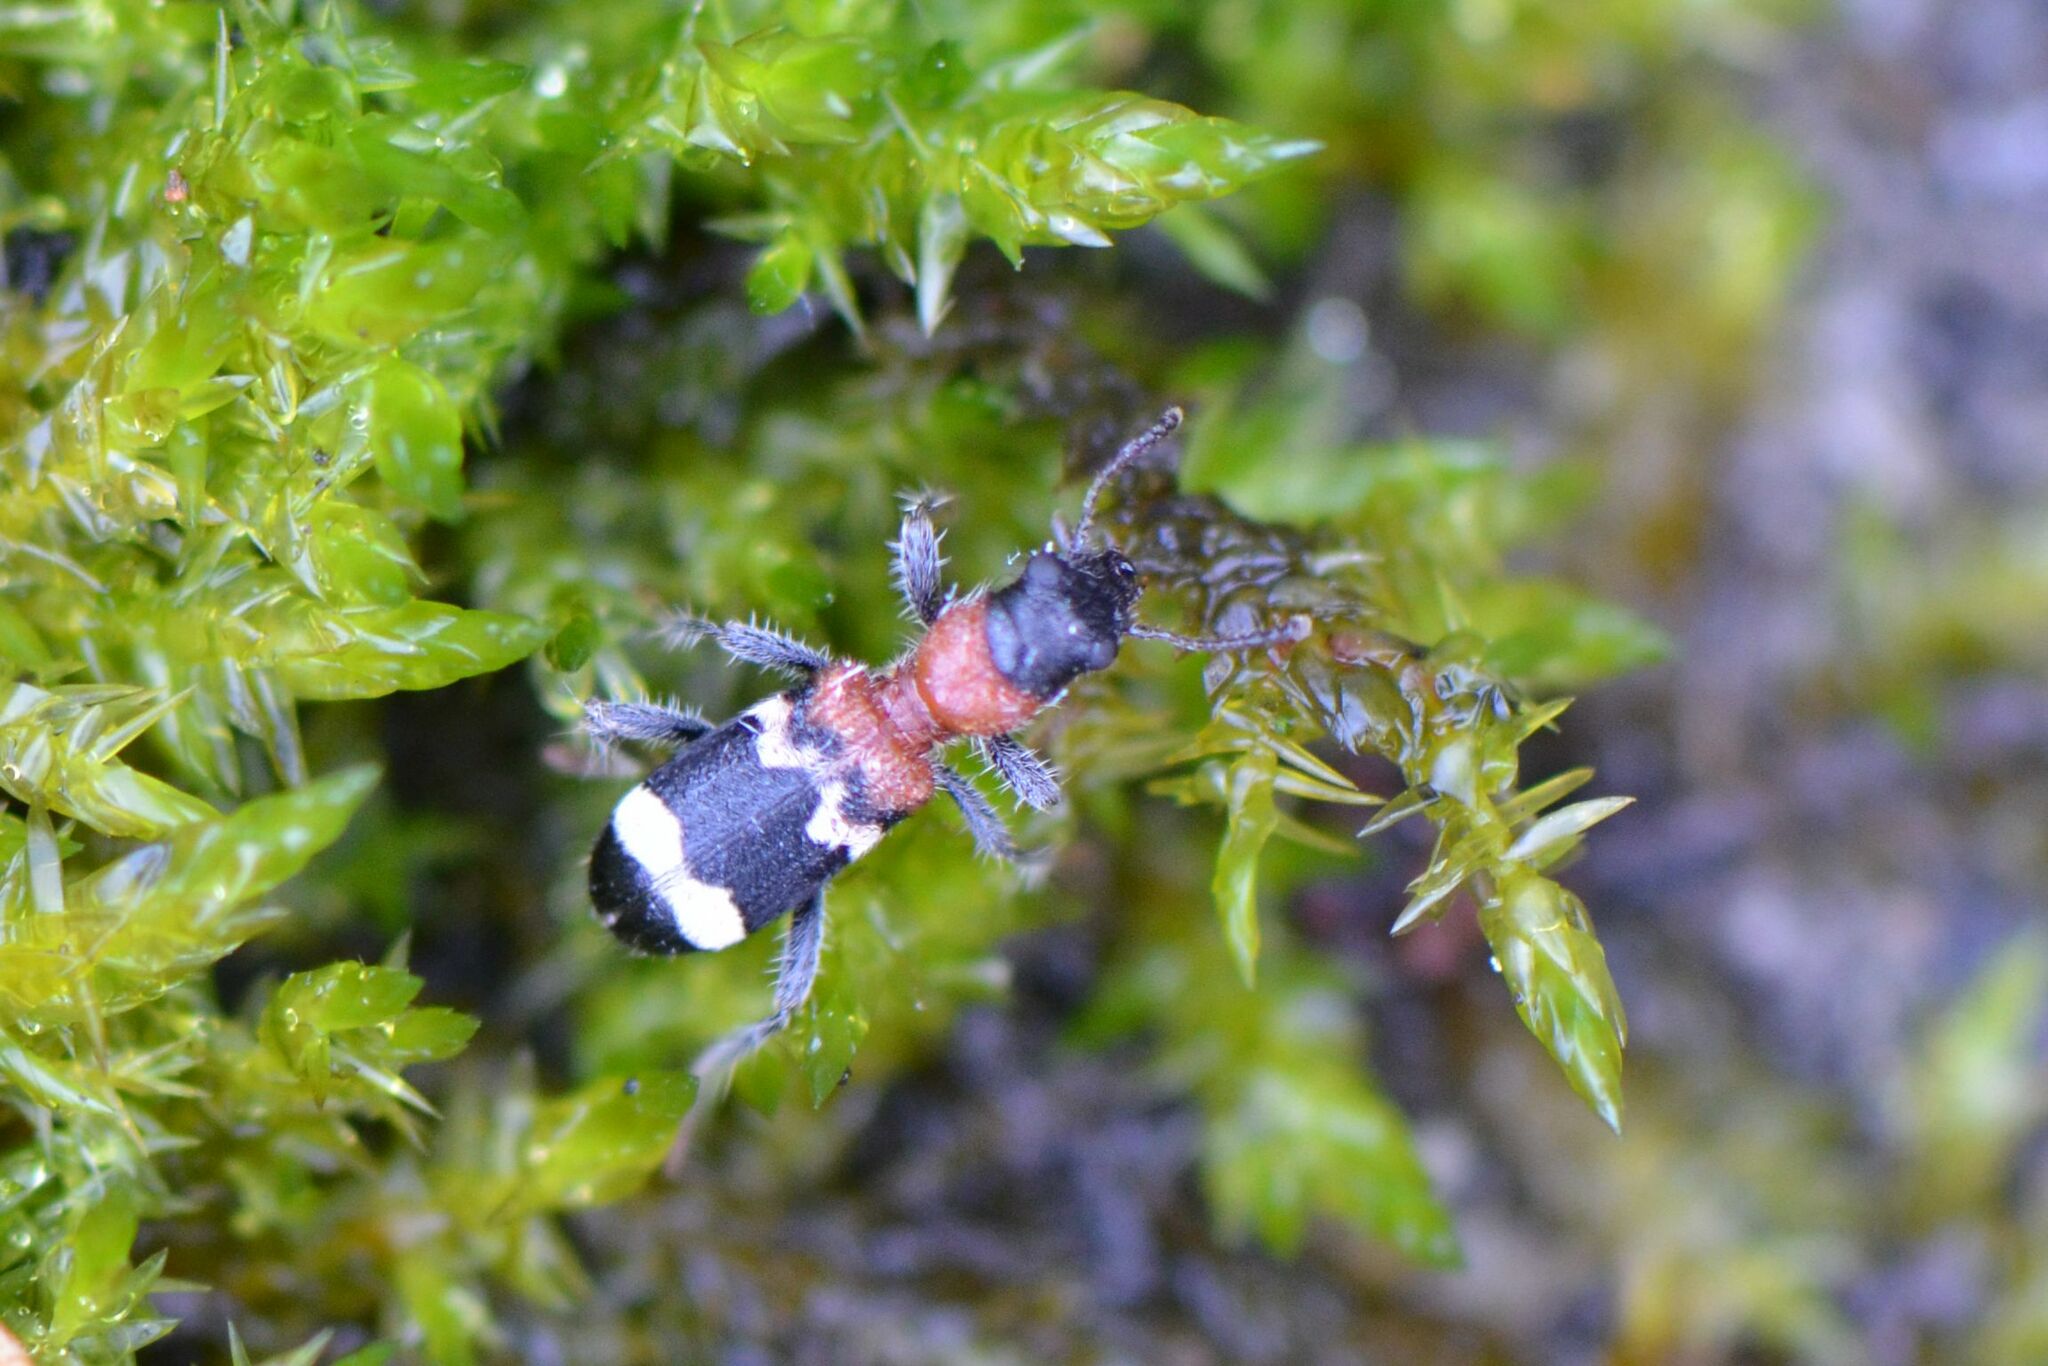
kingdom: Animalia
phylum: Arthropoda
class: Insecta
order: Coleoptera
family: Cleridae
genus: Thanasimus
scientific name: Thanasimus formicarius
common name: Ant beetle
